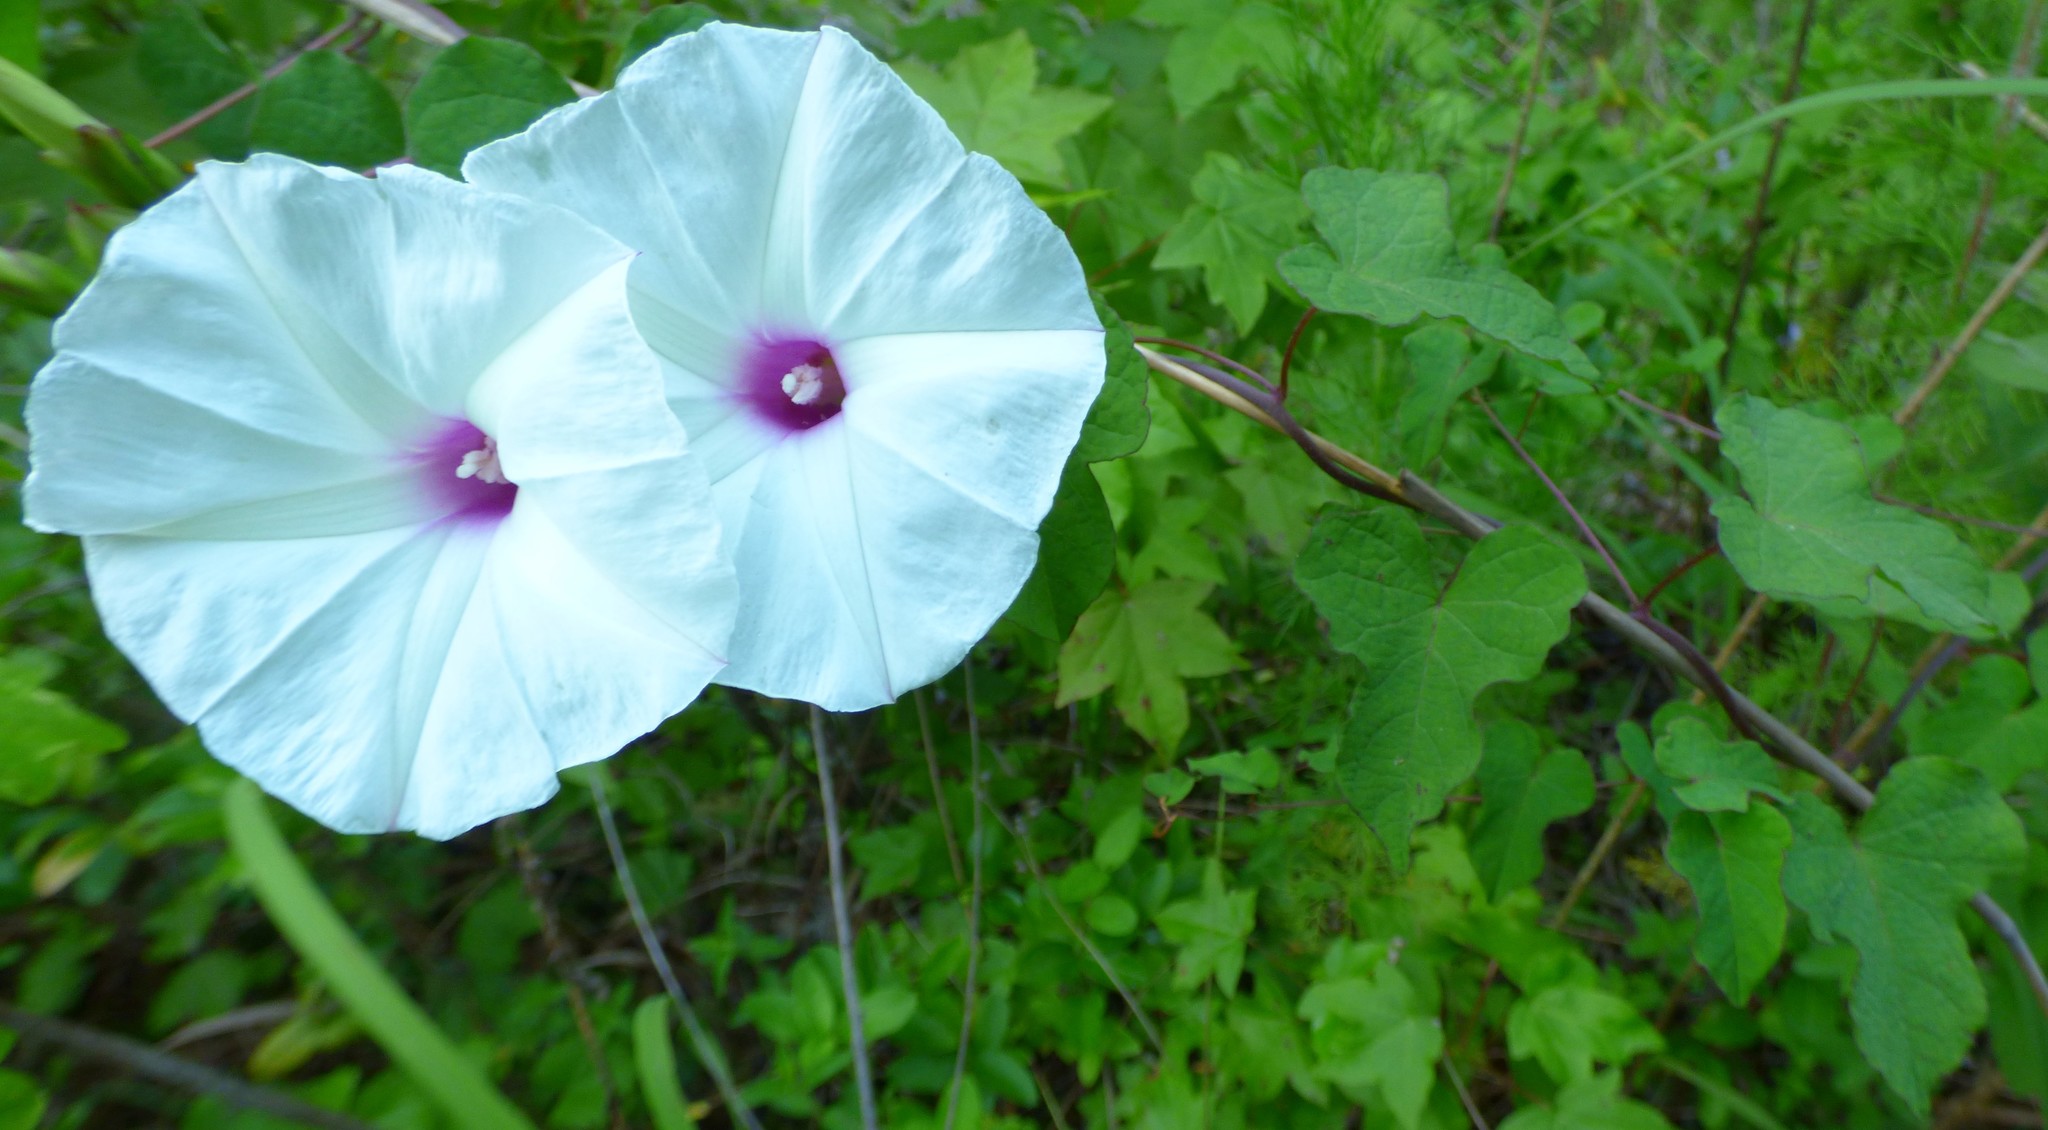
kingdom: Plantae
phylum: Tracheophyta
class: Magnoliopsida
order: Solanales
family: Convolvulaceae
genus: Ipomoea
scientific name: Ipomoea pandurata
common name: Man-of-the-earth
